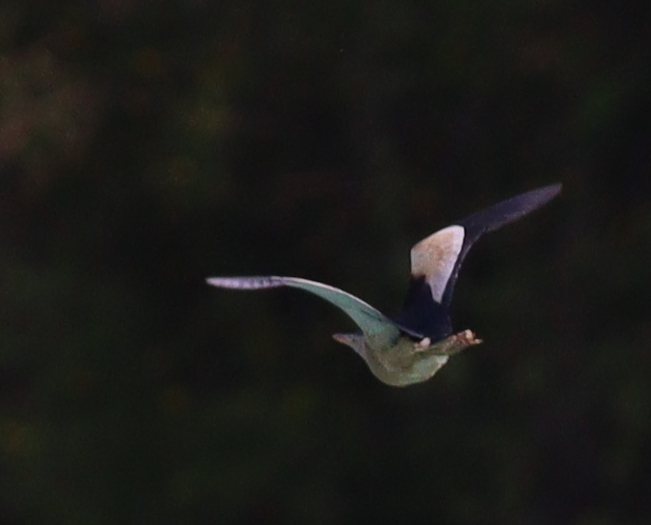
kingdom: Animalia
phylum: Chordata
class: Aves
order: Pelecaniformes
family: Ardeidae
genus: Ixobrychus
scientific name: Ixobrychus minutus
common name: Little bittern
